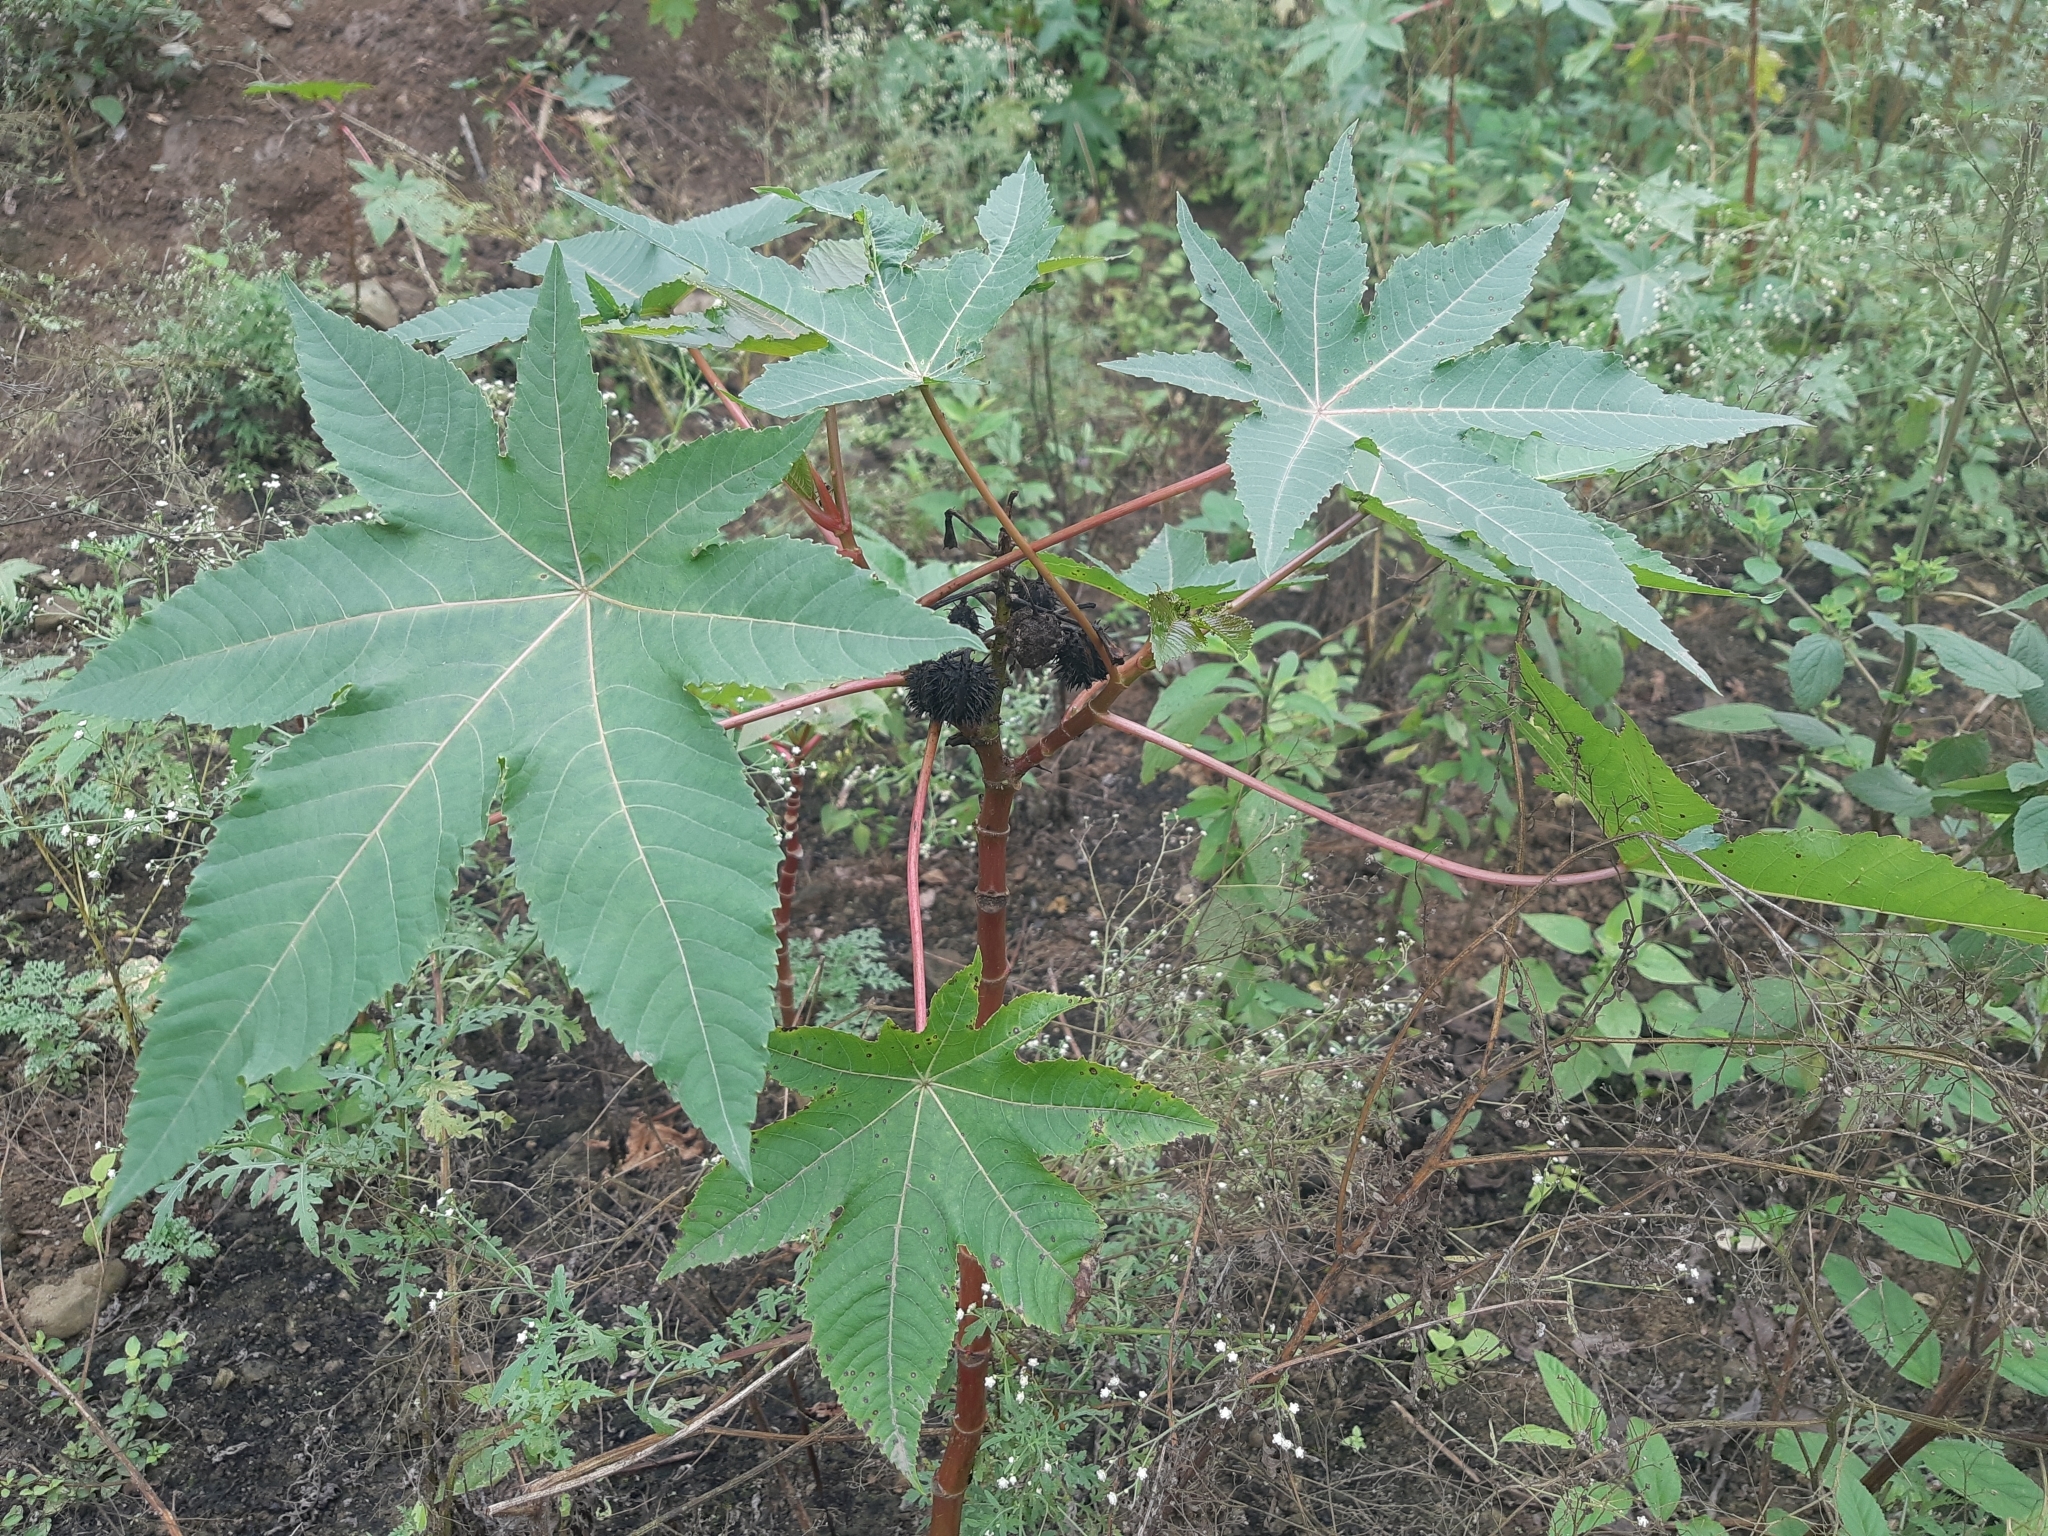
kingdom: Plantae
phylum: Tracheophyta
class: Magnoliopsida
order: Malpighiales
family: Euphorbiaceae
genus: Ricinus
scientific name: Ricinus communis
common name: Castor-oil-plant
